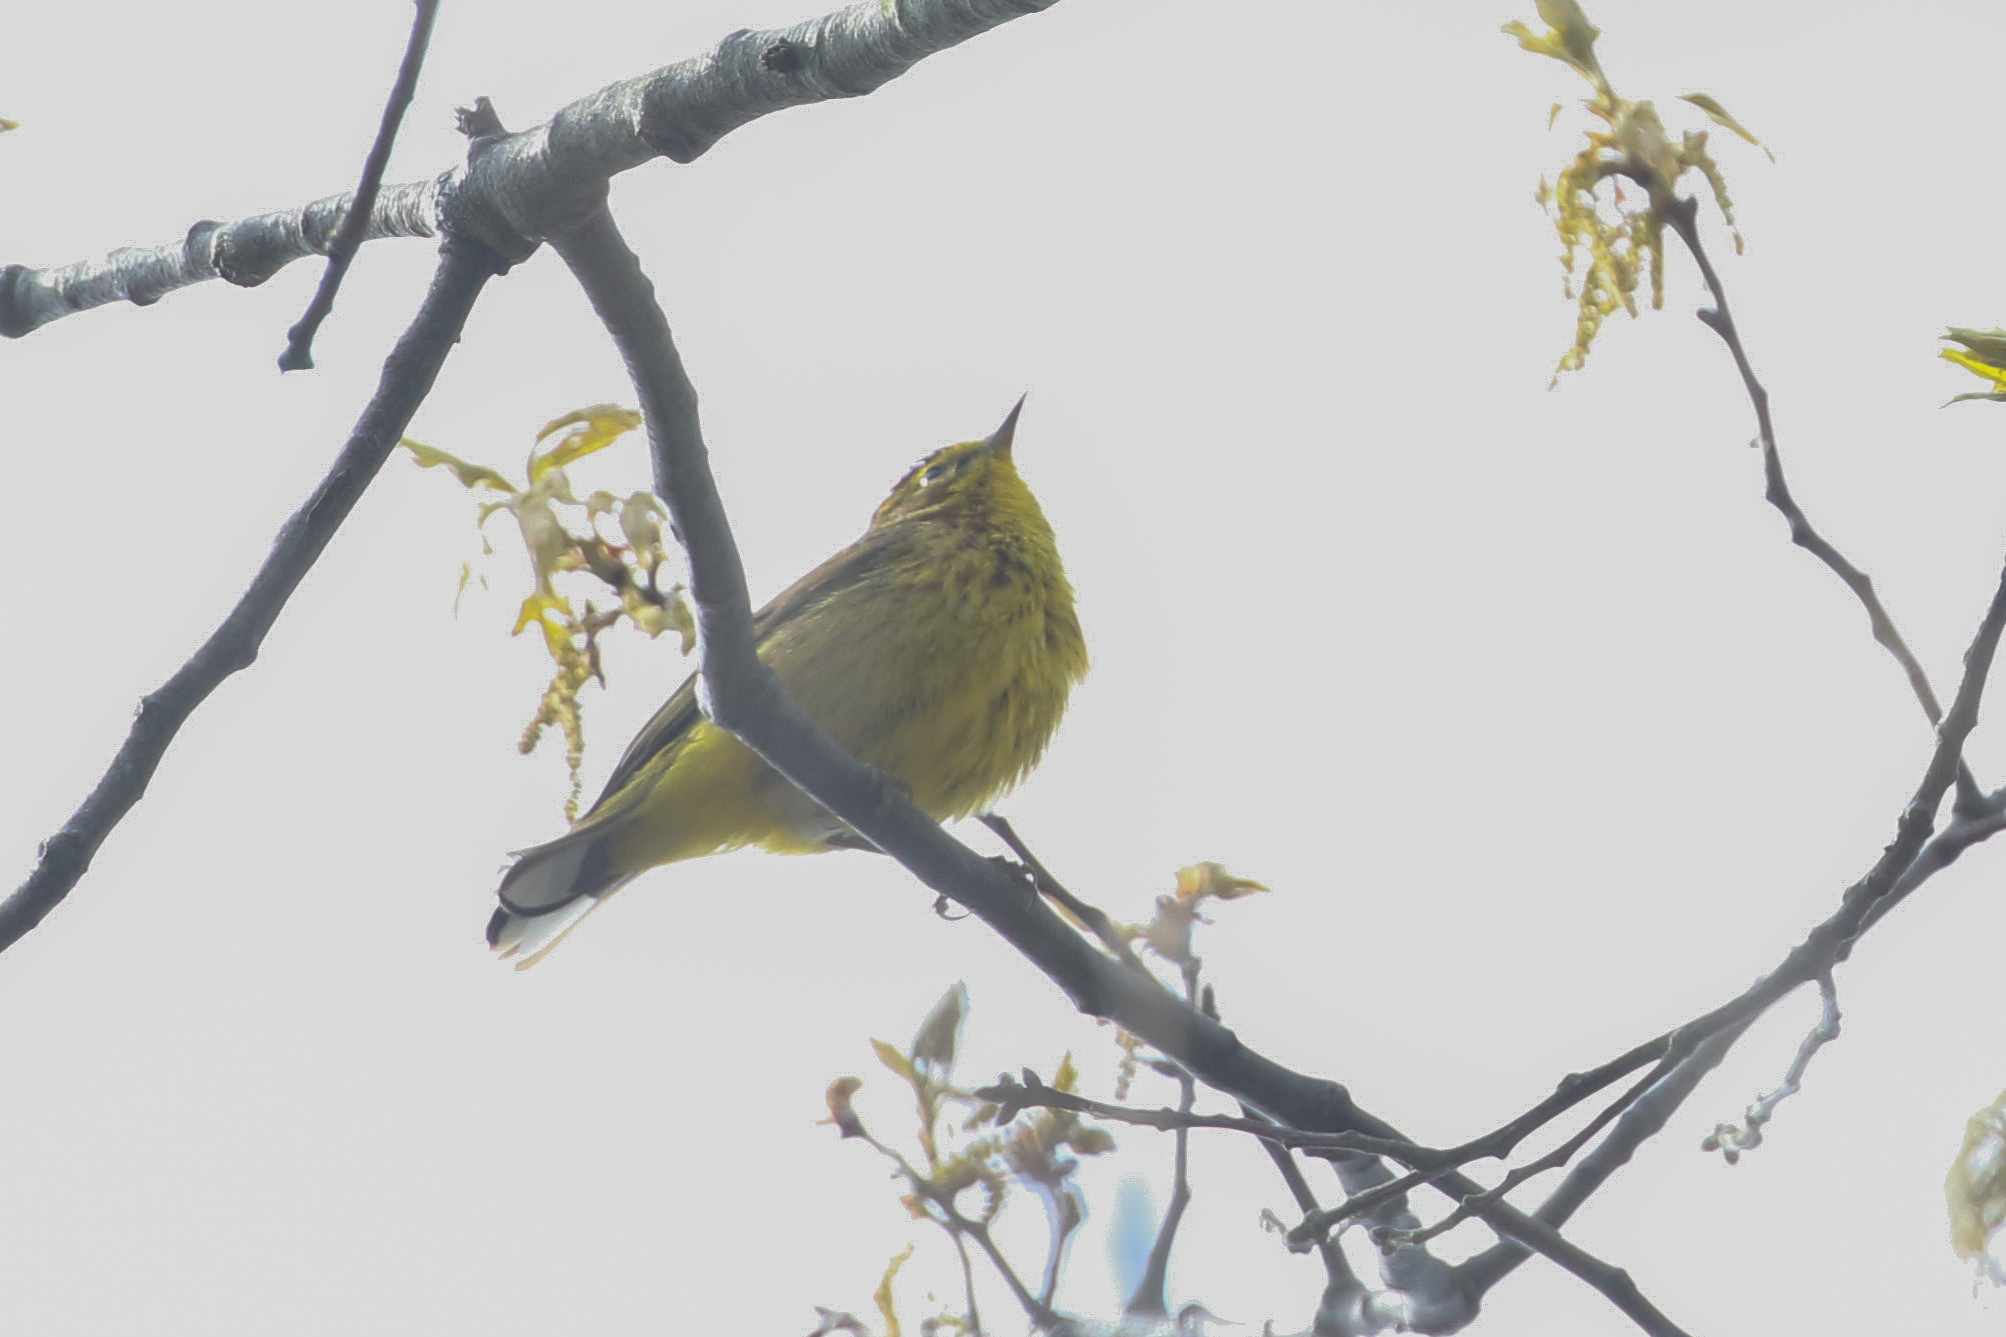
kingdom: Animalia
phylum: Chordata
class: Aves
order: Passeriformes
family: Parulidae
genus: Setophaga
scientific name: Setophaga palmarum
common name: Palm warbler
